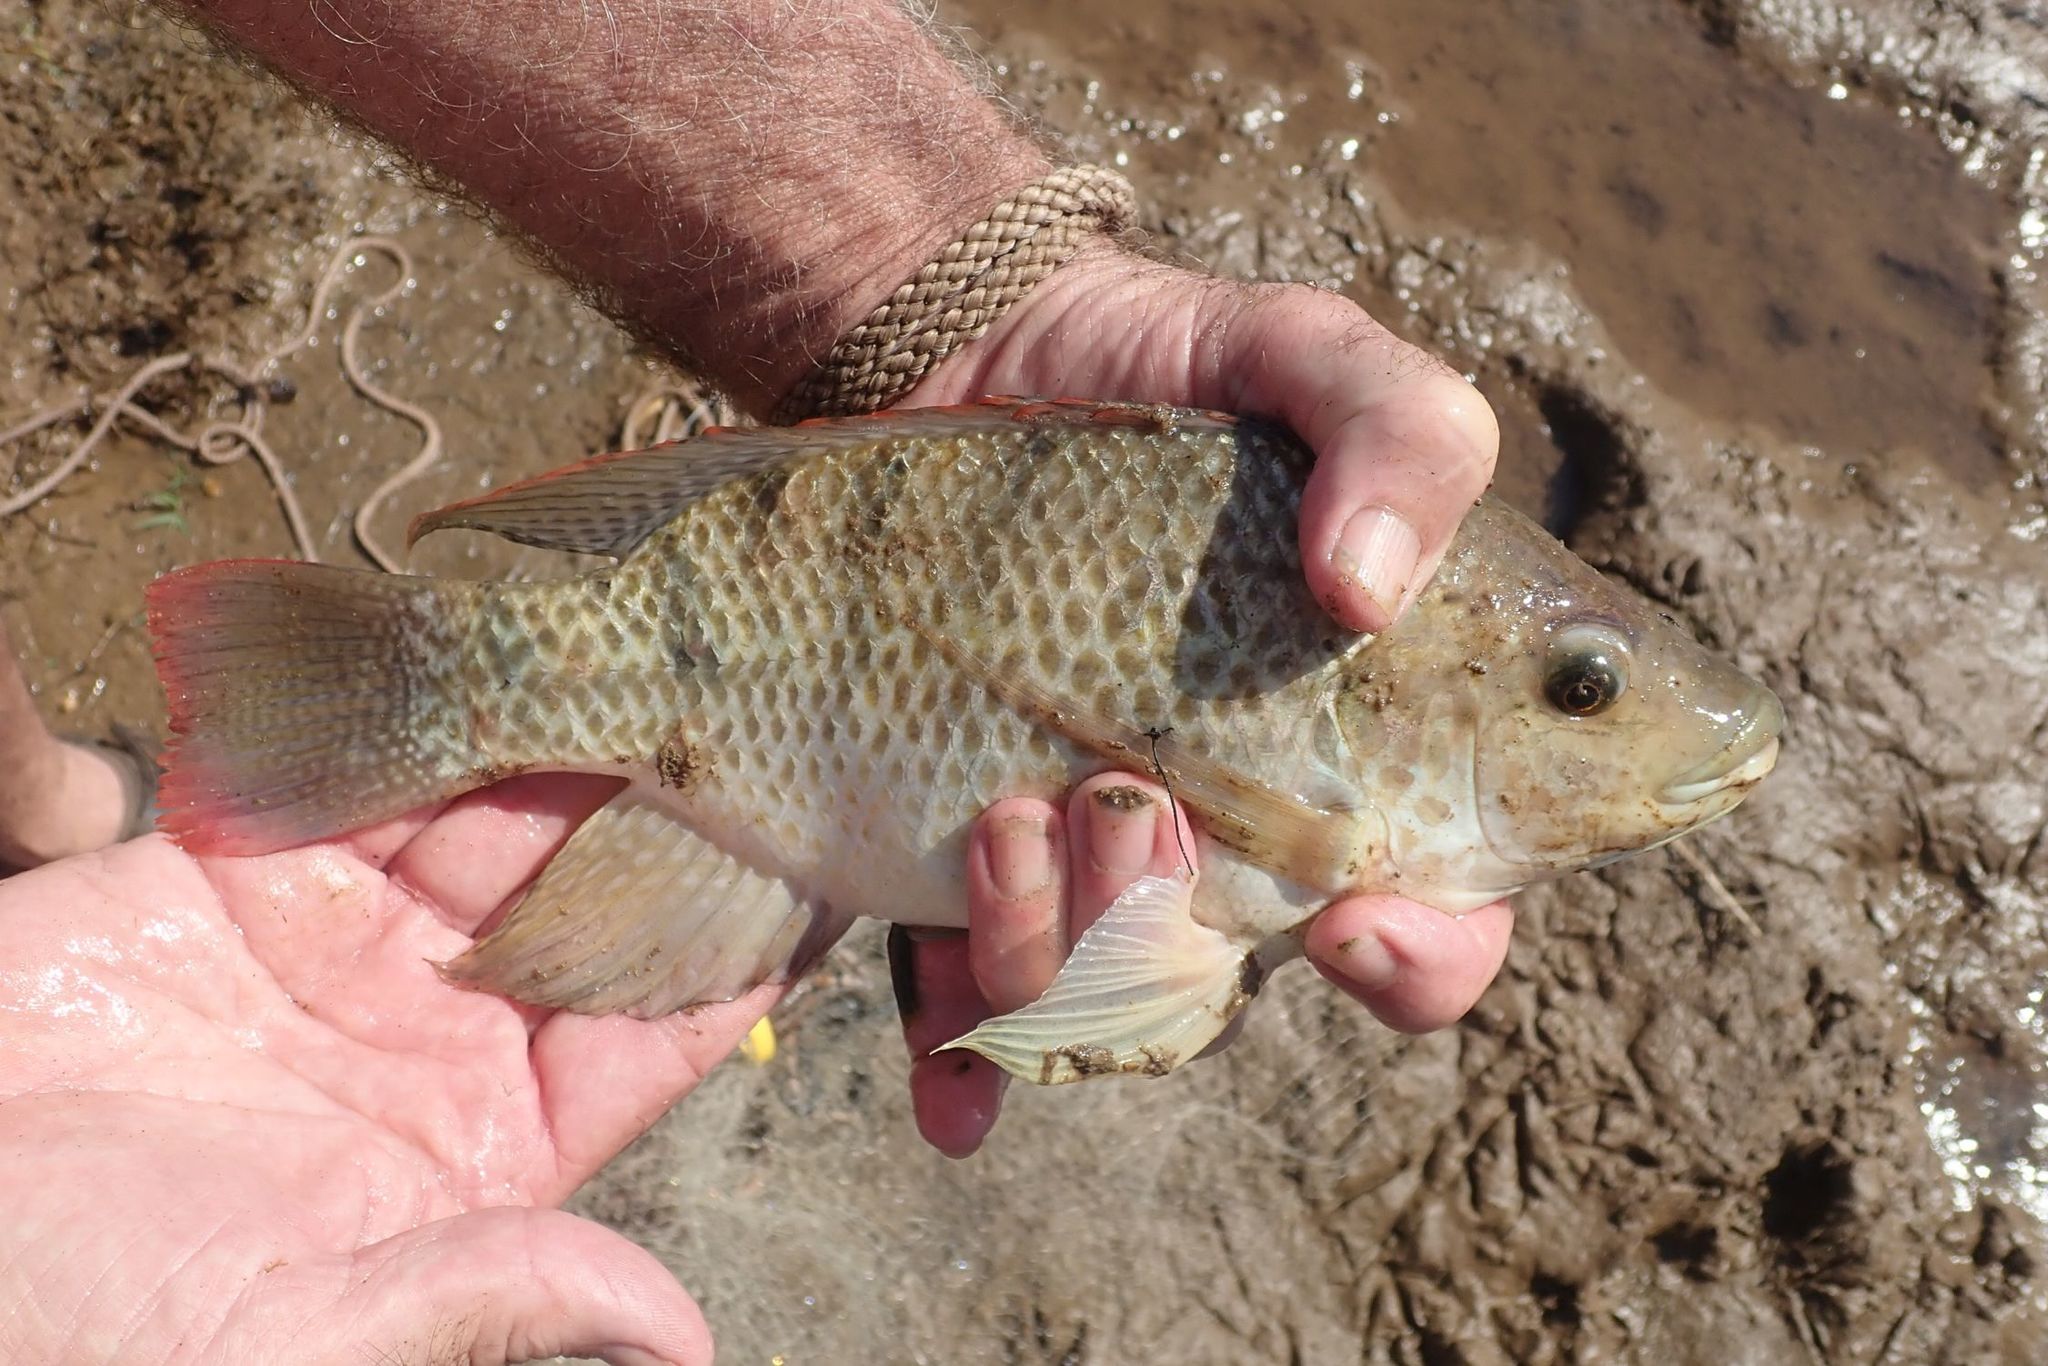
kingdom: Animalia
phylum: Chordata
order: Perciformes
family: Cichlidae
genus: Oreochromis
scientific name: Oreochromis mossambicus
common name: Mozambique tilapia
